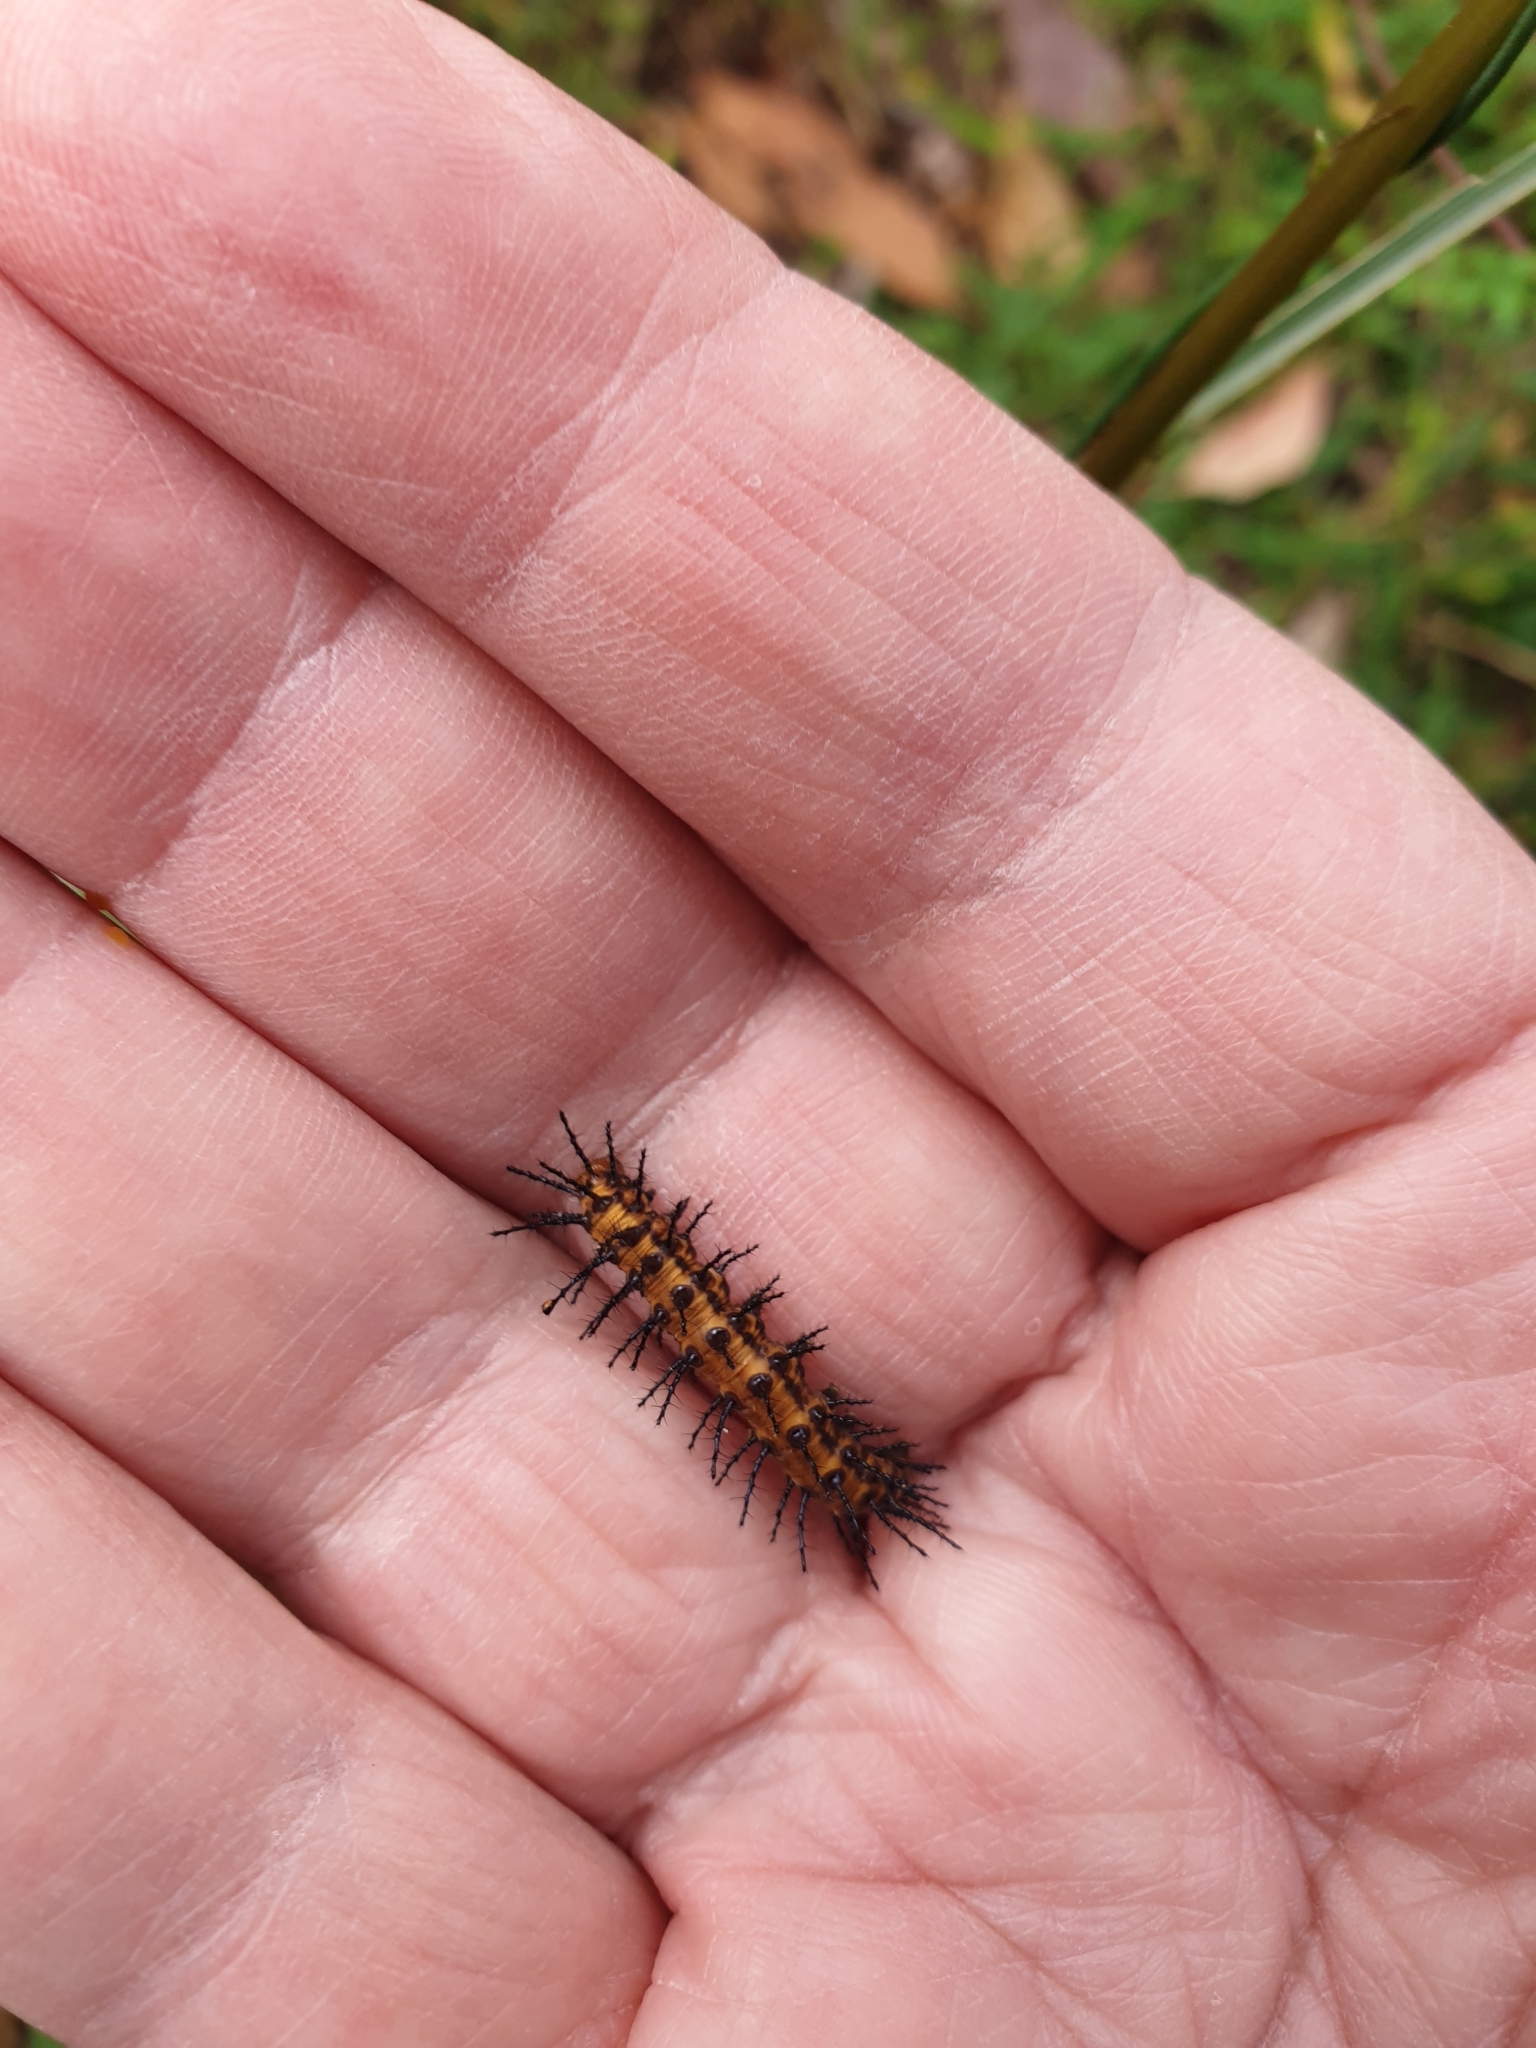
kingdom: Animalia
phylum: Arthropoda
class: Insecta
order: Lepidoptera
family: Nymphalidae
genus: Acraea
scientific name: Acraea andromacha
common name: Glasswing
